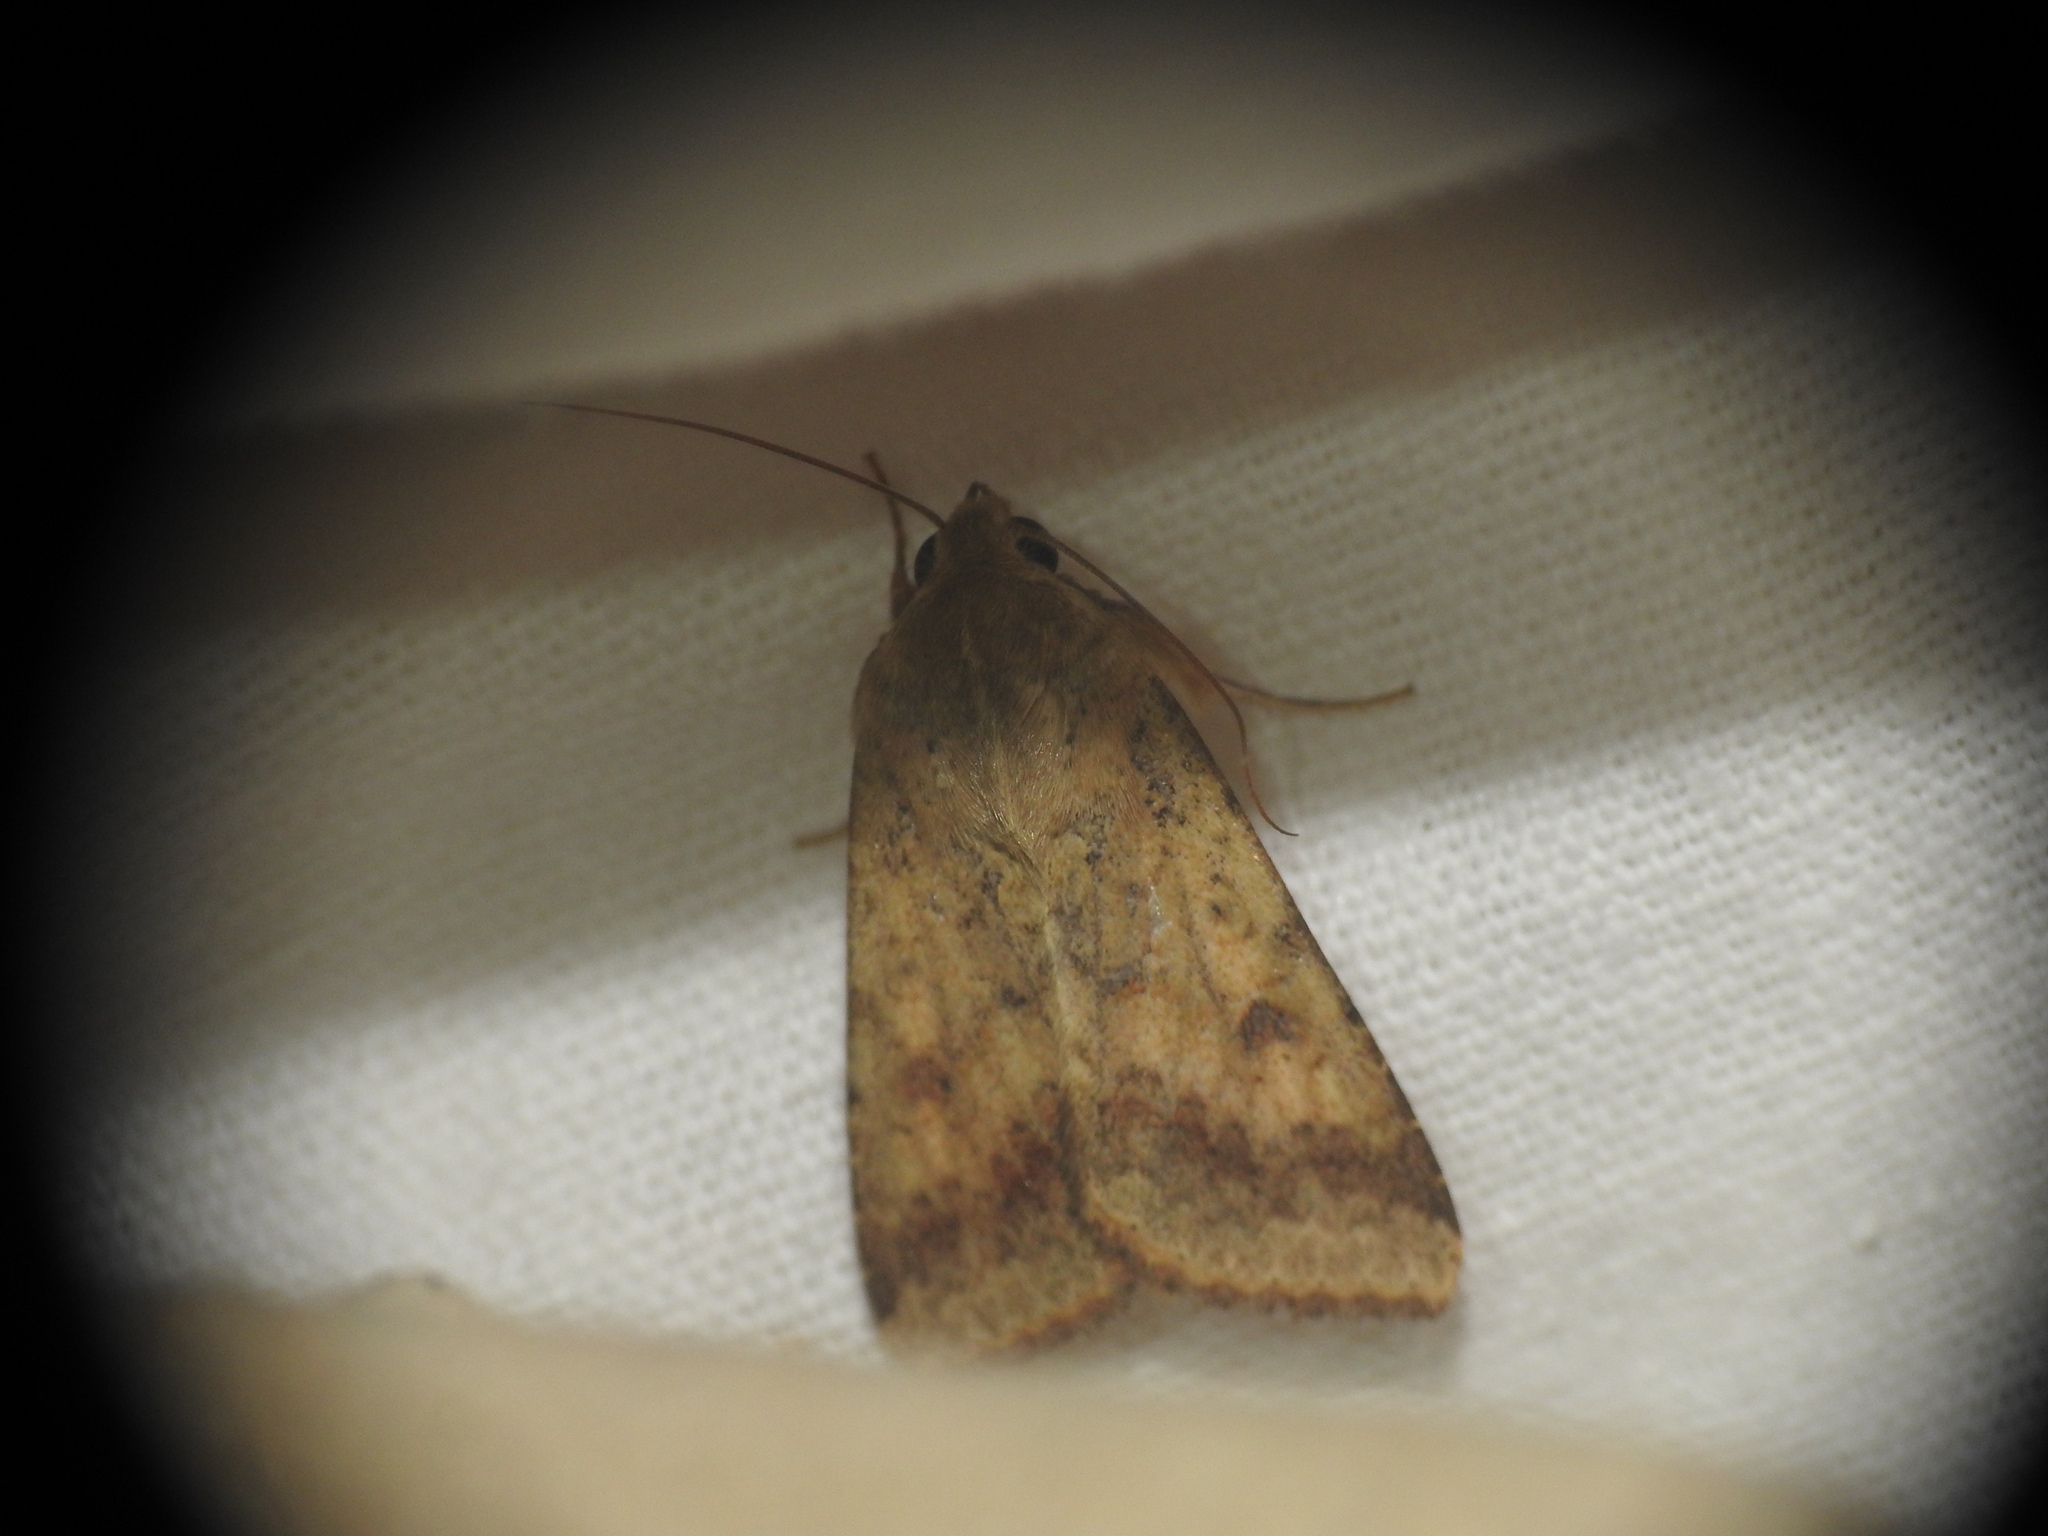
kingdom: Animalia
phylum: Arthropoda
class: Insecta
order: Lepidoptera
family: Noctuidae
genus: Helicoverpa
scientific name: Helicoverpa armigera
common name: Cotton bollworm
